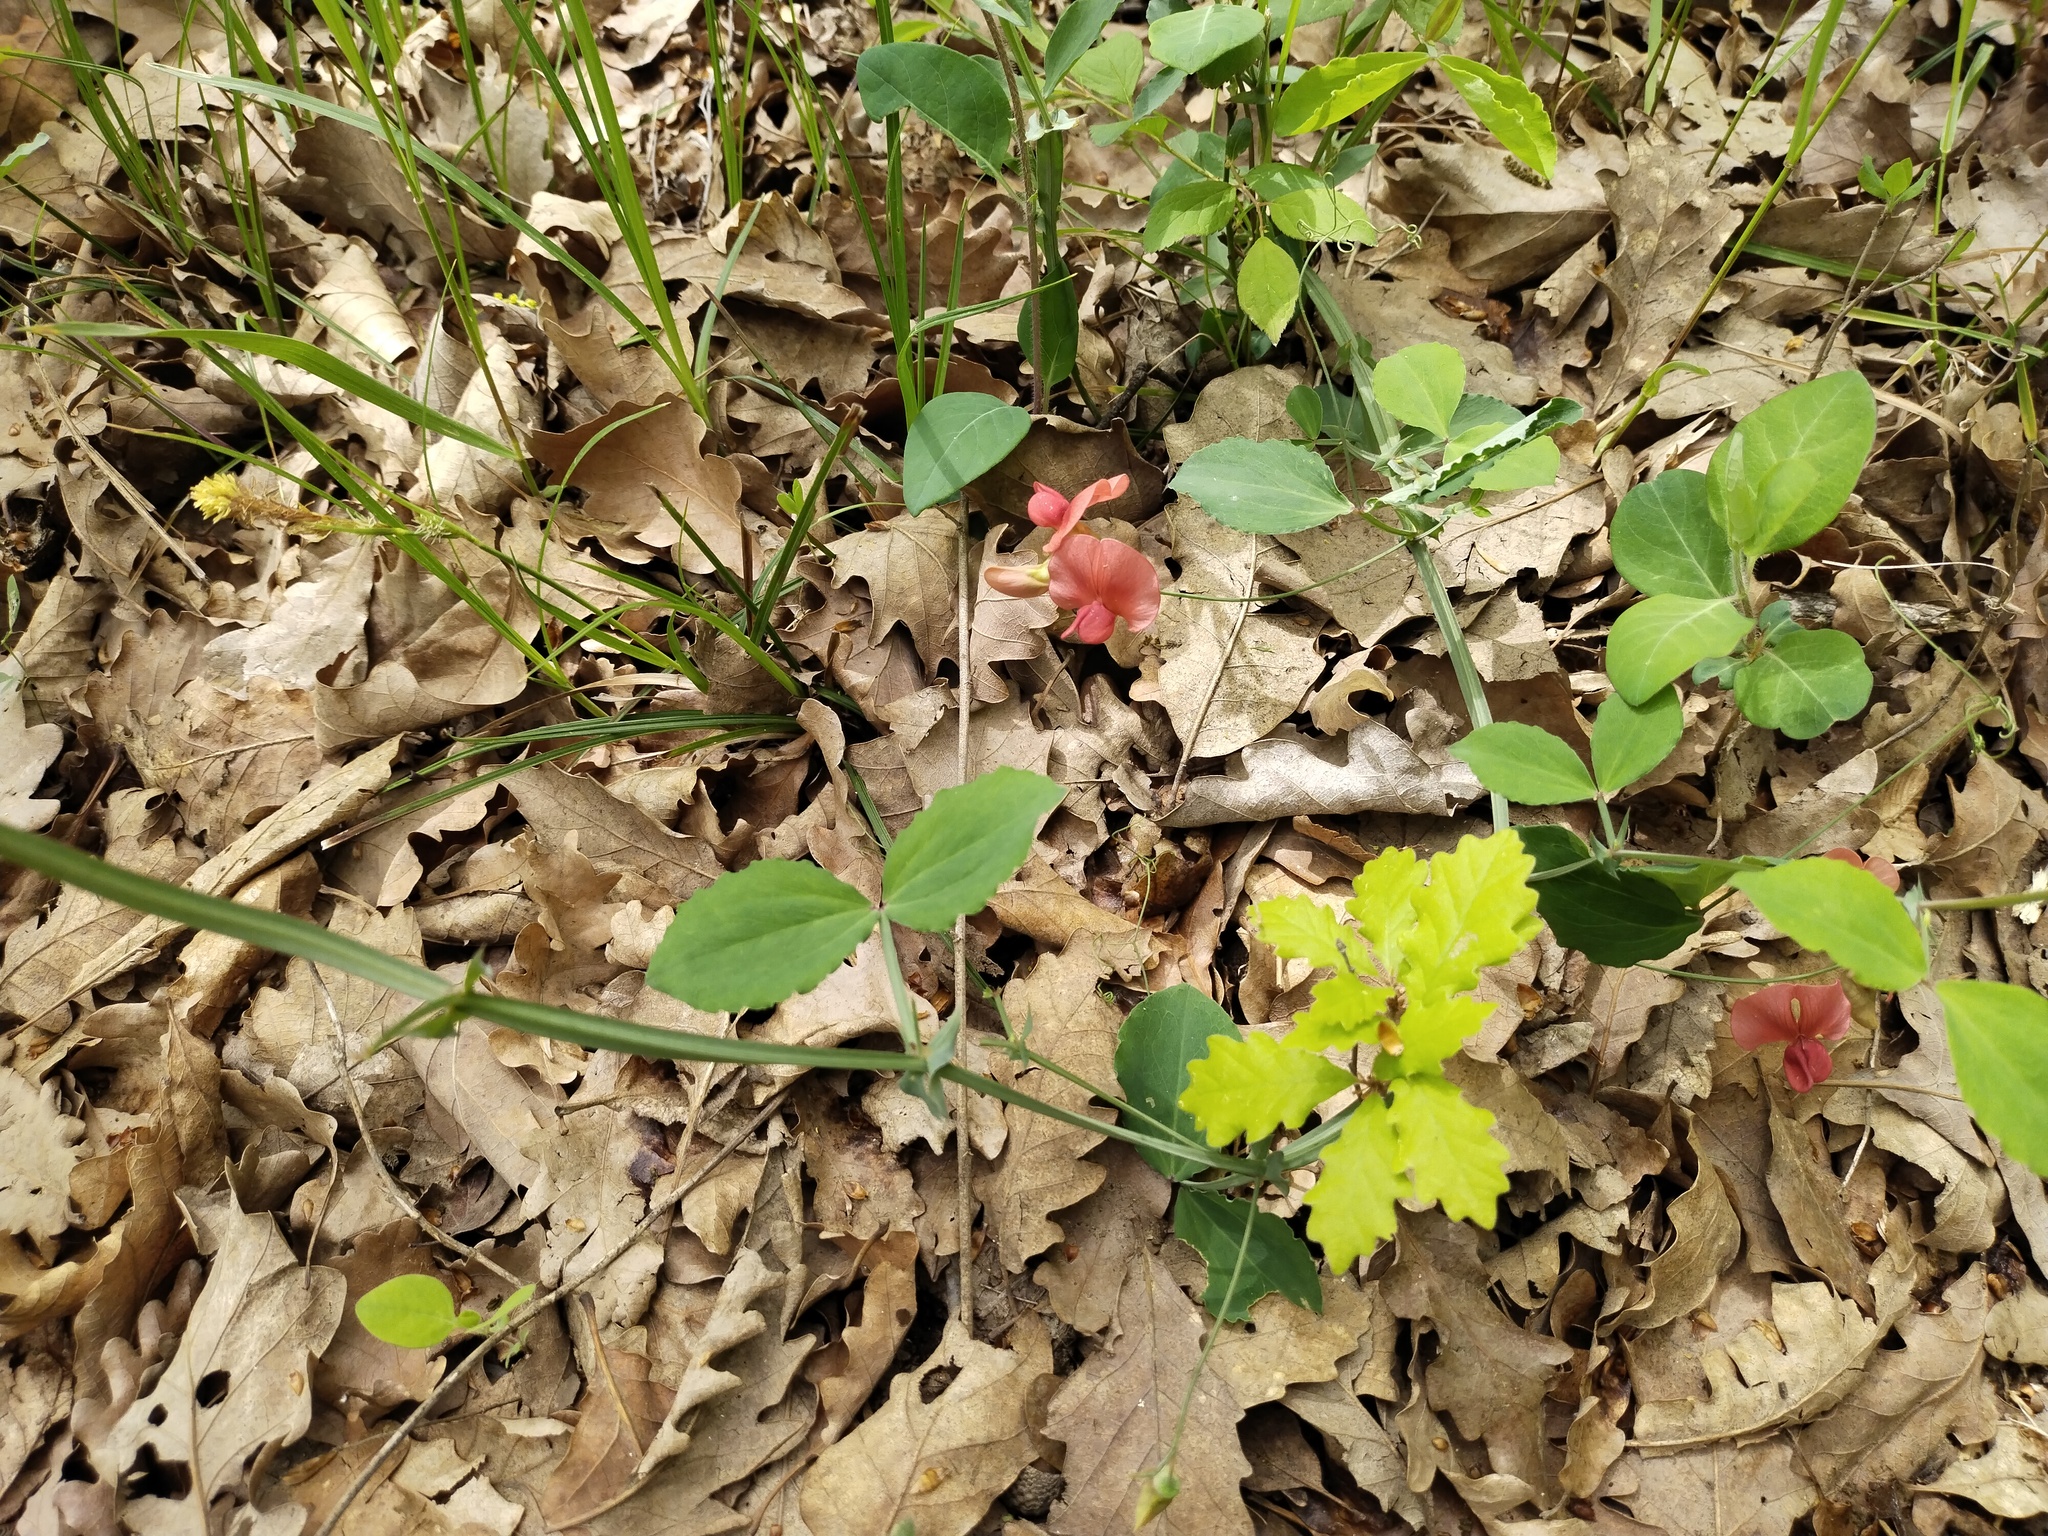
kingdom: Plantae
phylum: Tracheophyta
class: Magnoliopsida
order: Fabales
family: Fabaceae
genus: Lathyrus
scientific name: Lathyrus rotundifolius
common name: Round-leaf vetchling
